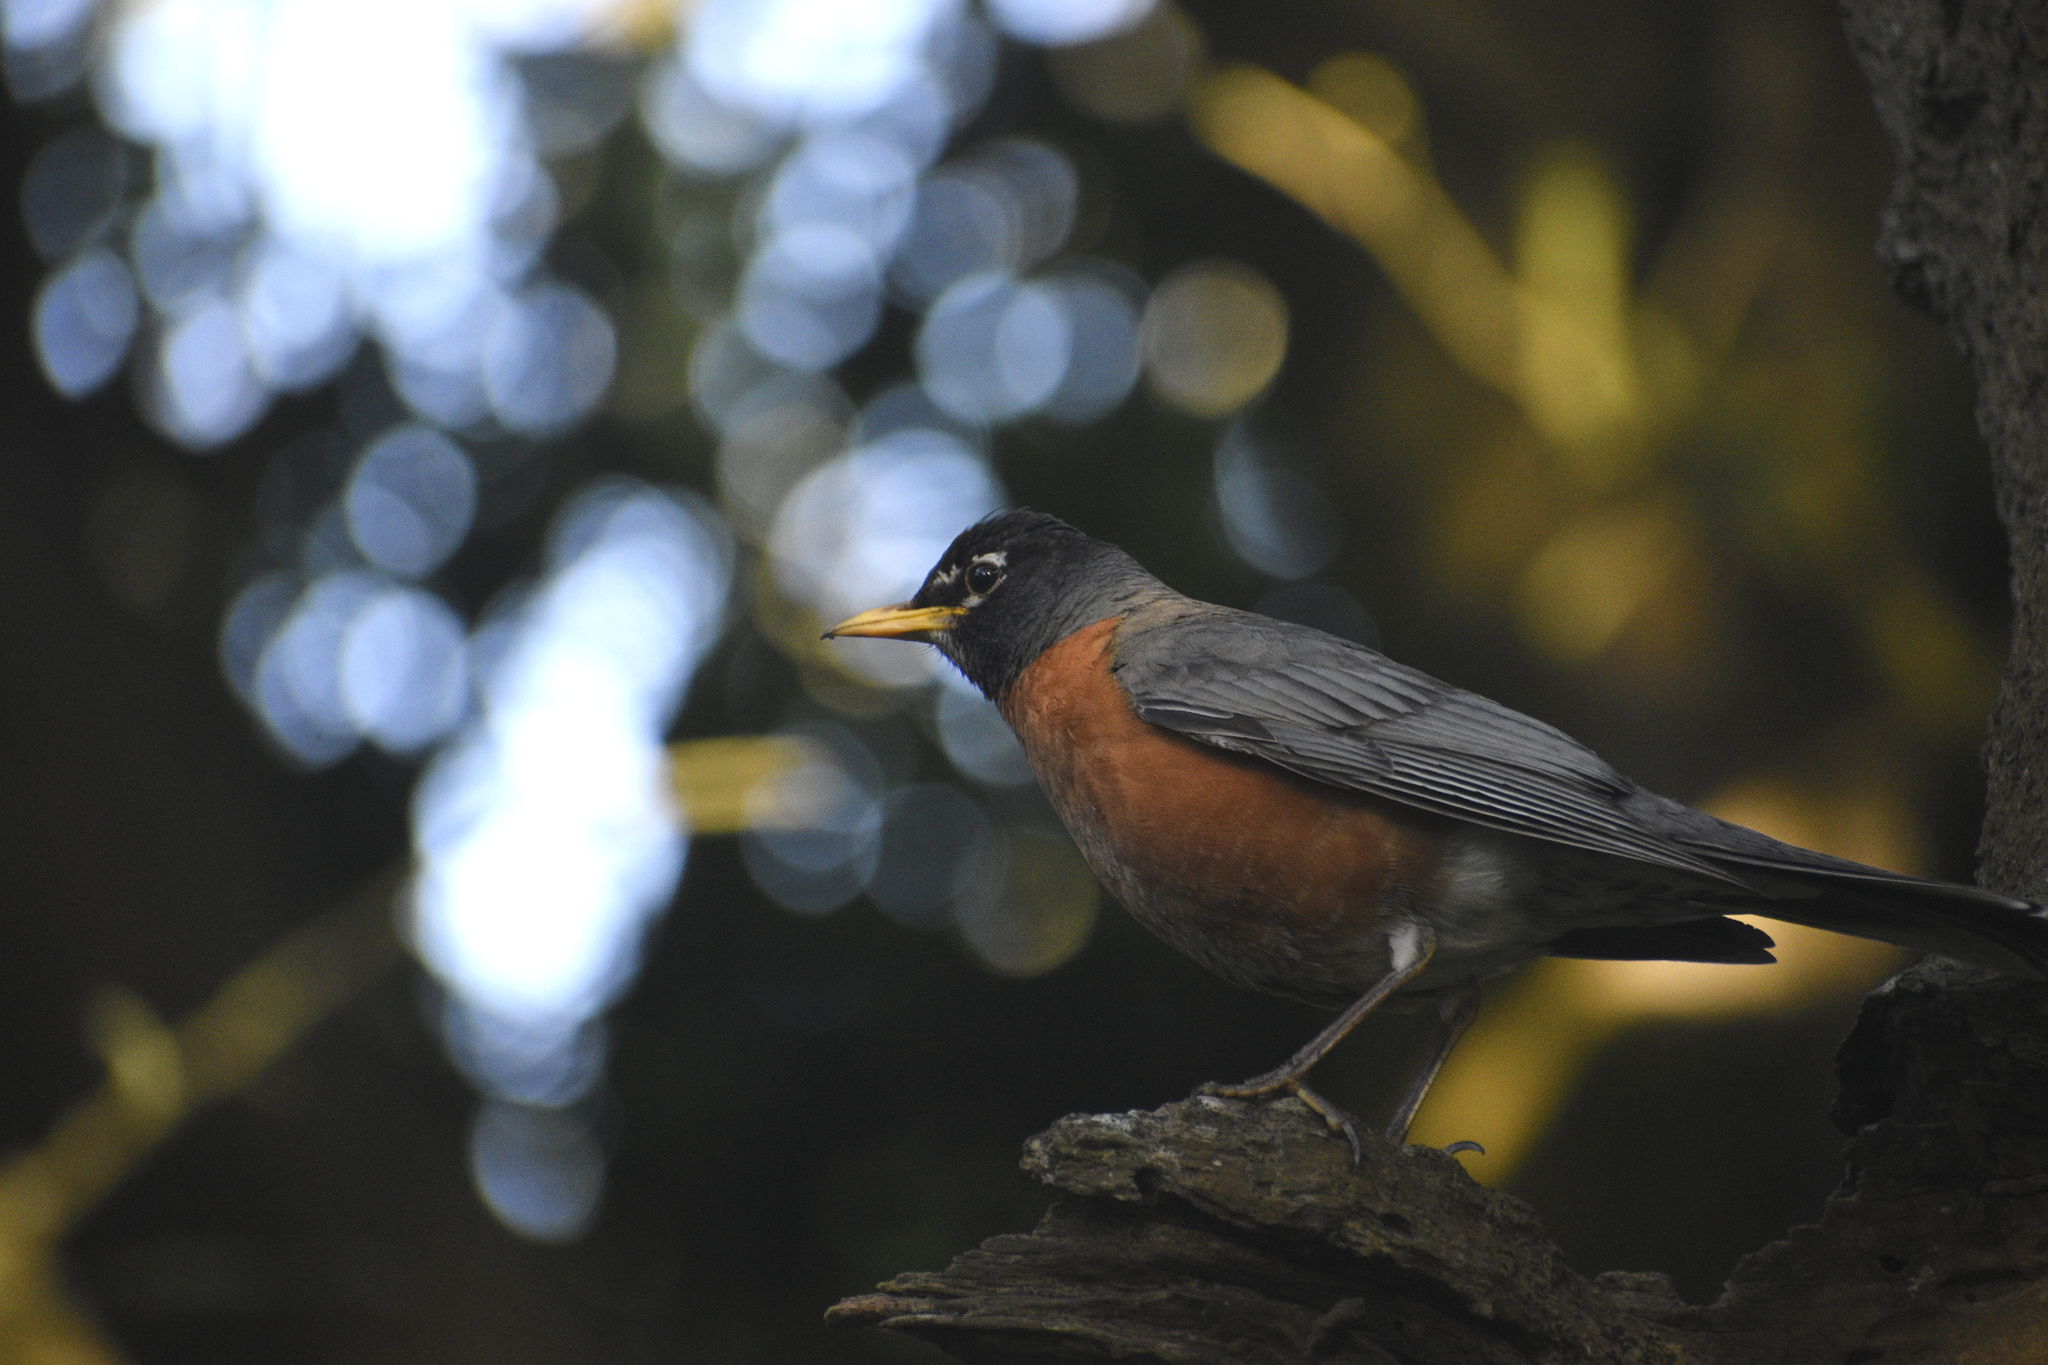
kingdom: Animalia
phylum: Chordata
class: Aves
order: Passeriformes
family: Turdidae
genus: Turdus
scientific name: Turdus migratorius
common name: American robin
